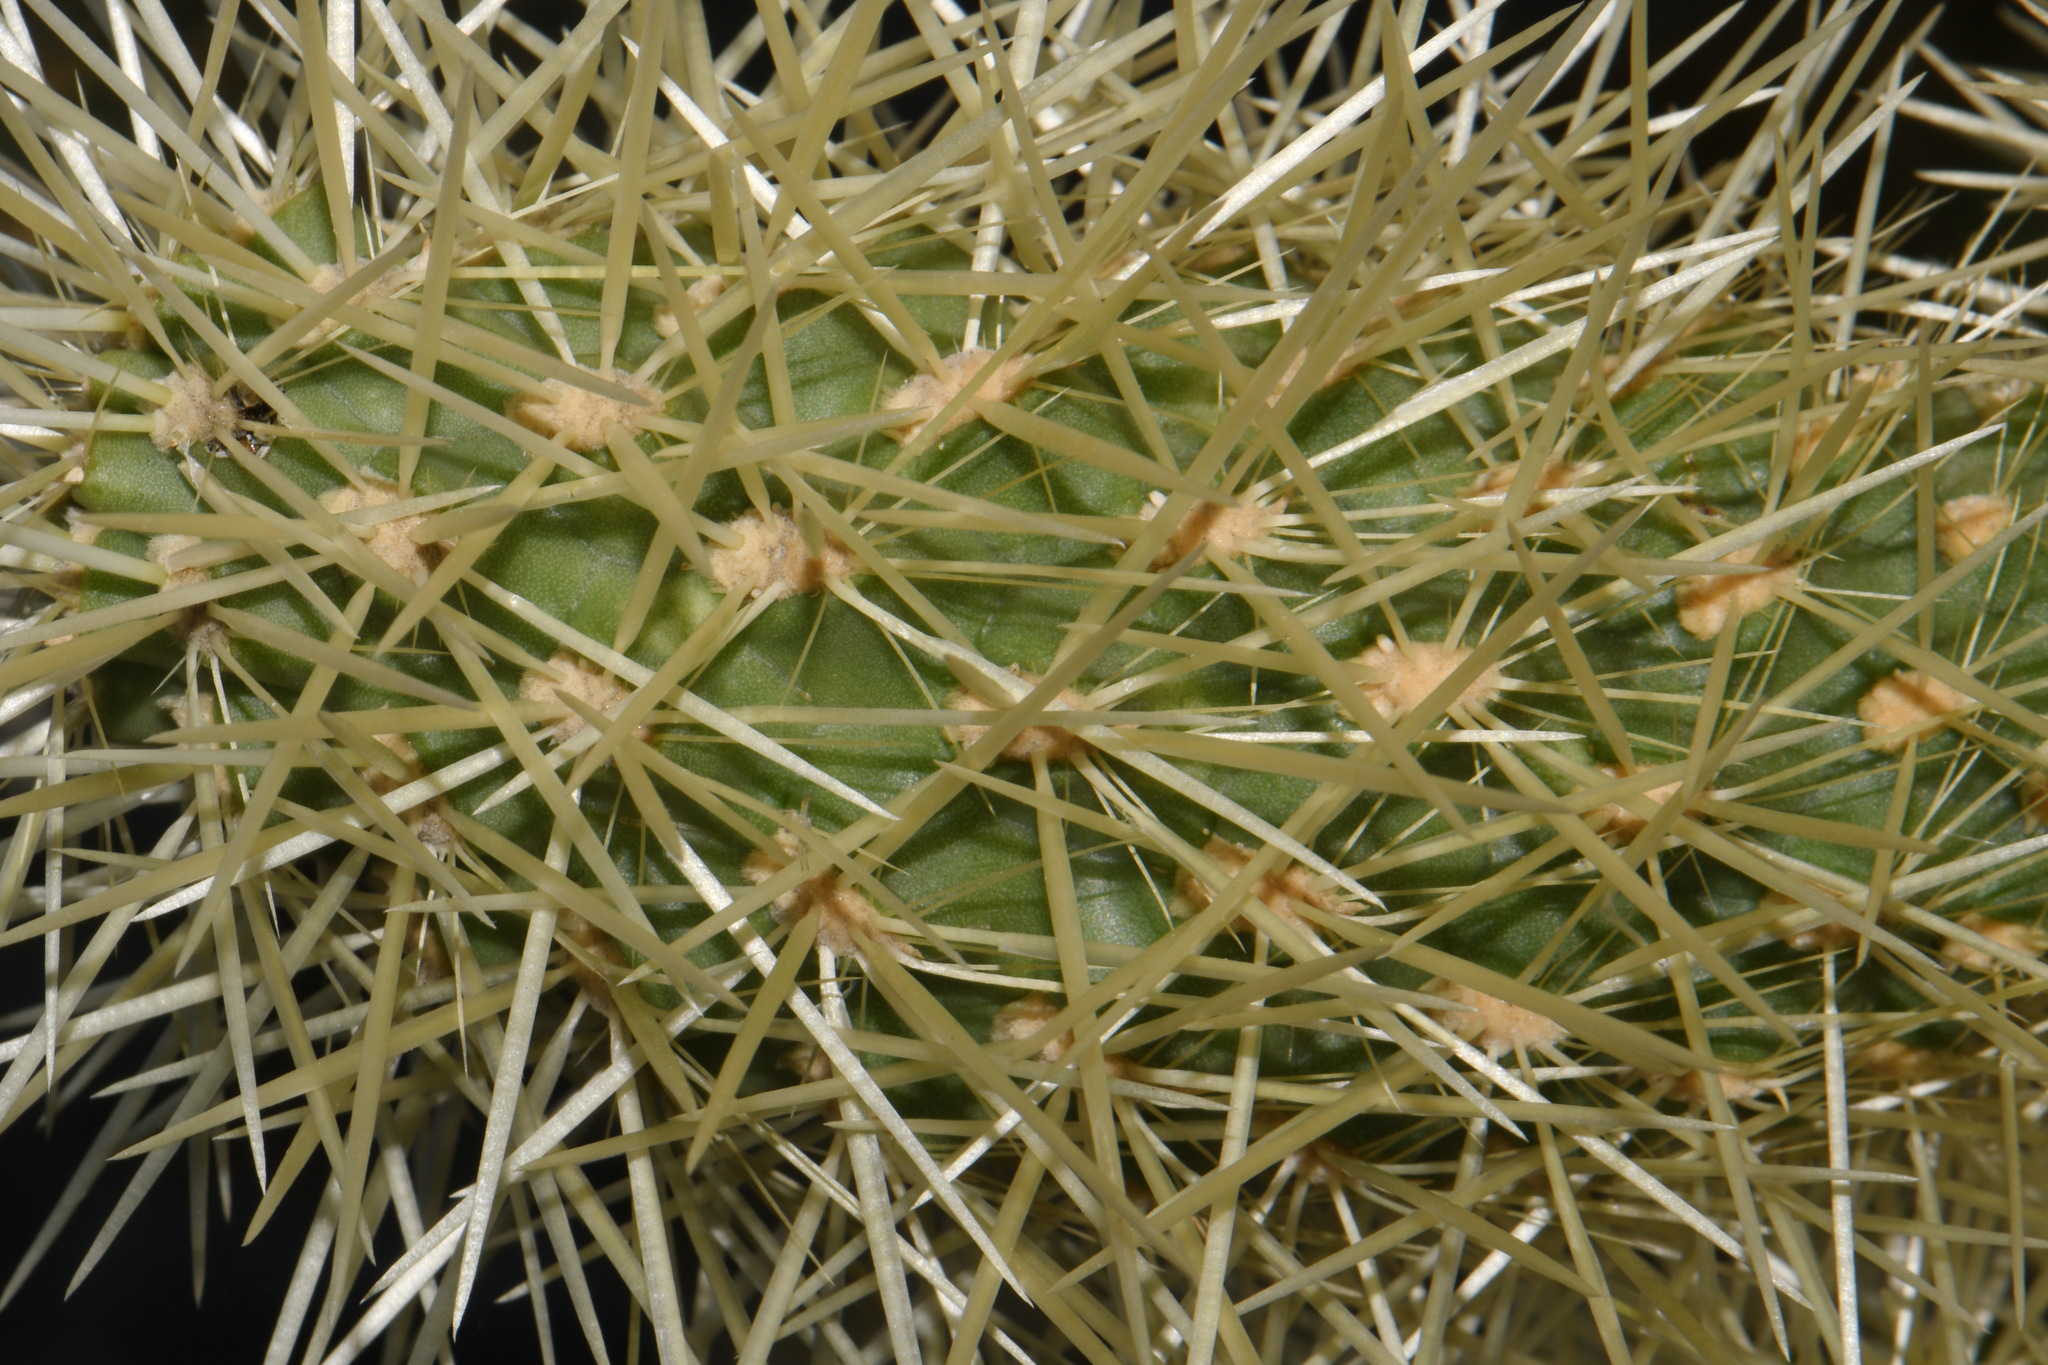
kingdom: Plantae
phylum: Tracheophyta
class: Magnoliopsida
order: Caryophyllales
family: Cactaceae
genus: Cylindropuntia
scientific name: Cylindropuntia fosbergii
